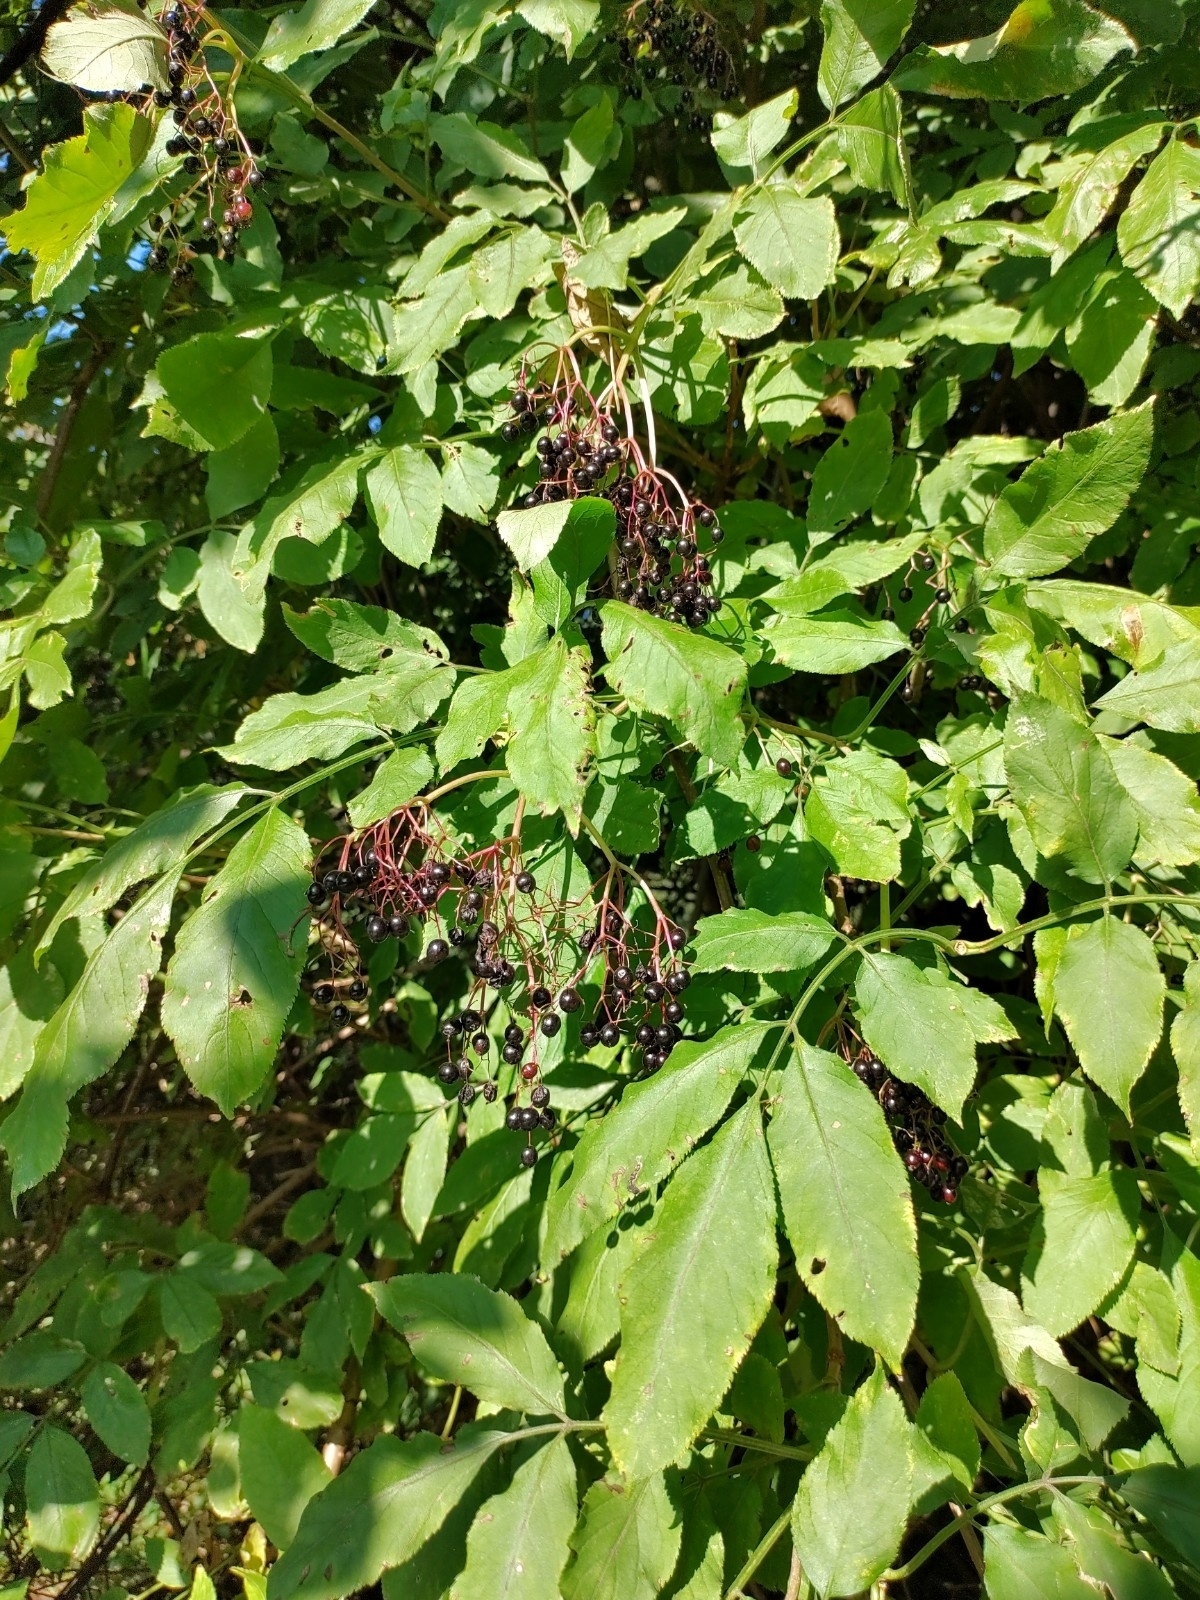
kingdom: Plantae
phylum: Tracheophyta
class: Magnoliopsida
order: Dipsacales
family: Viburnaceae
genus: Sambucus
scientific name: Sambucus nigra
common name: Elder
